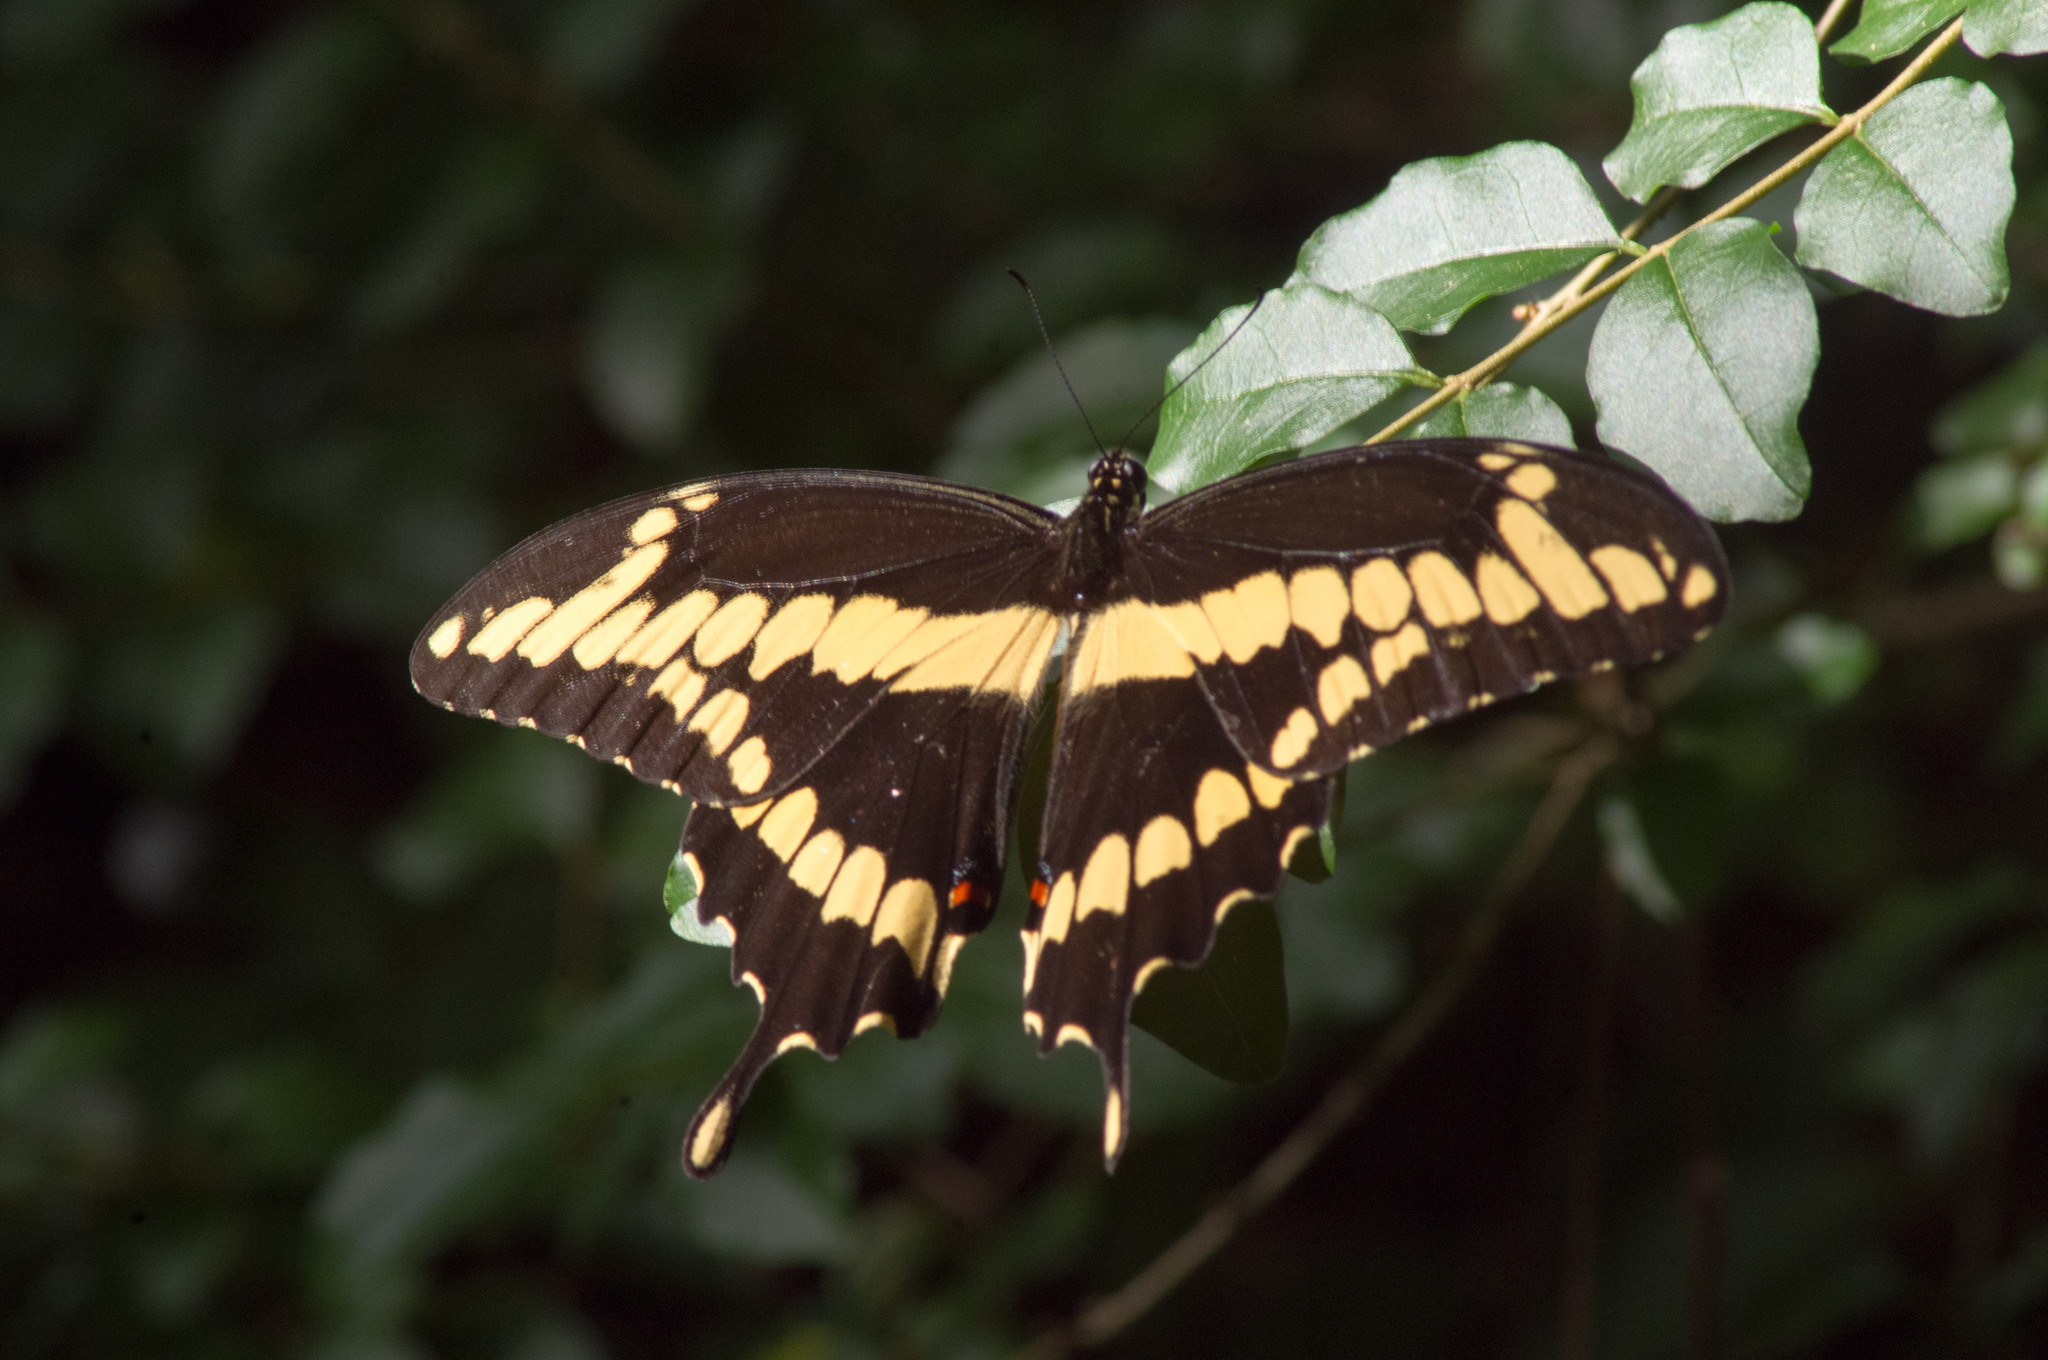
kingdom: Animalia
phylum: Arthropoda
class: Insecta
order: Lepidoptera
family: Papilionidae
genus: Papilio
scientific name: Papilio cresphontes
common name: Giant swallowtail
